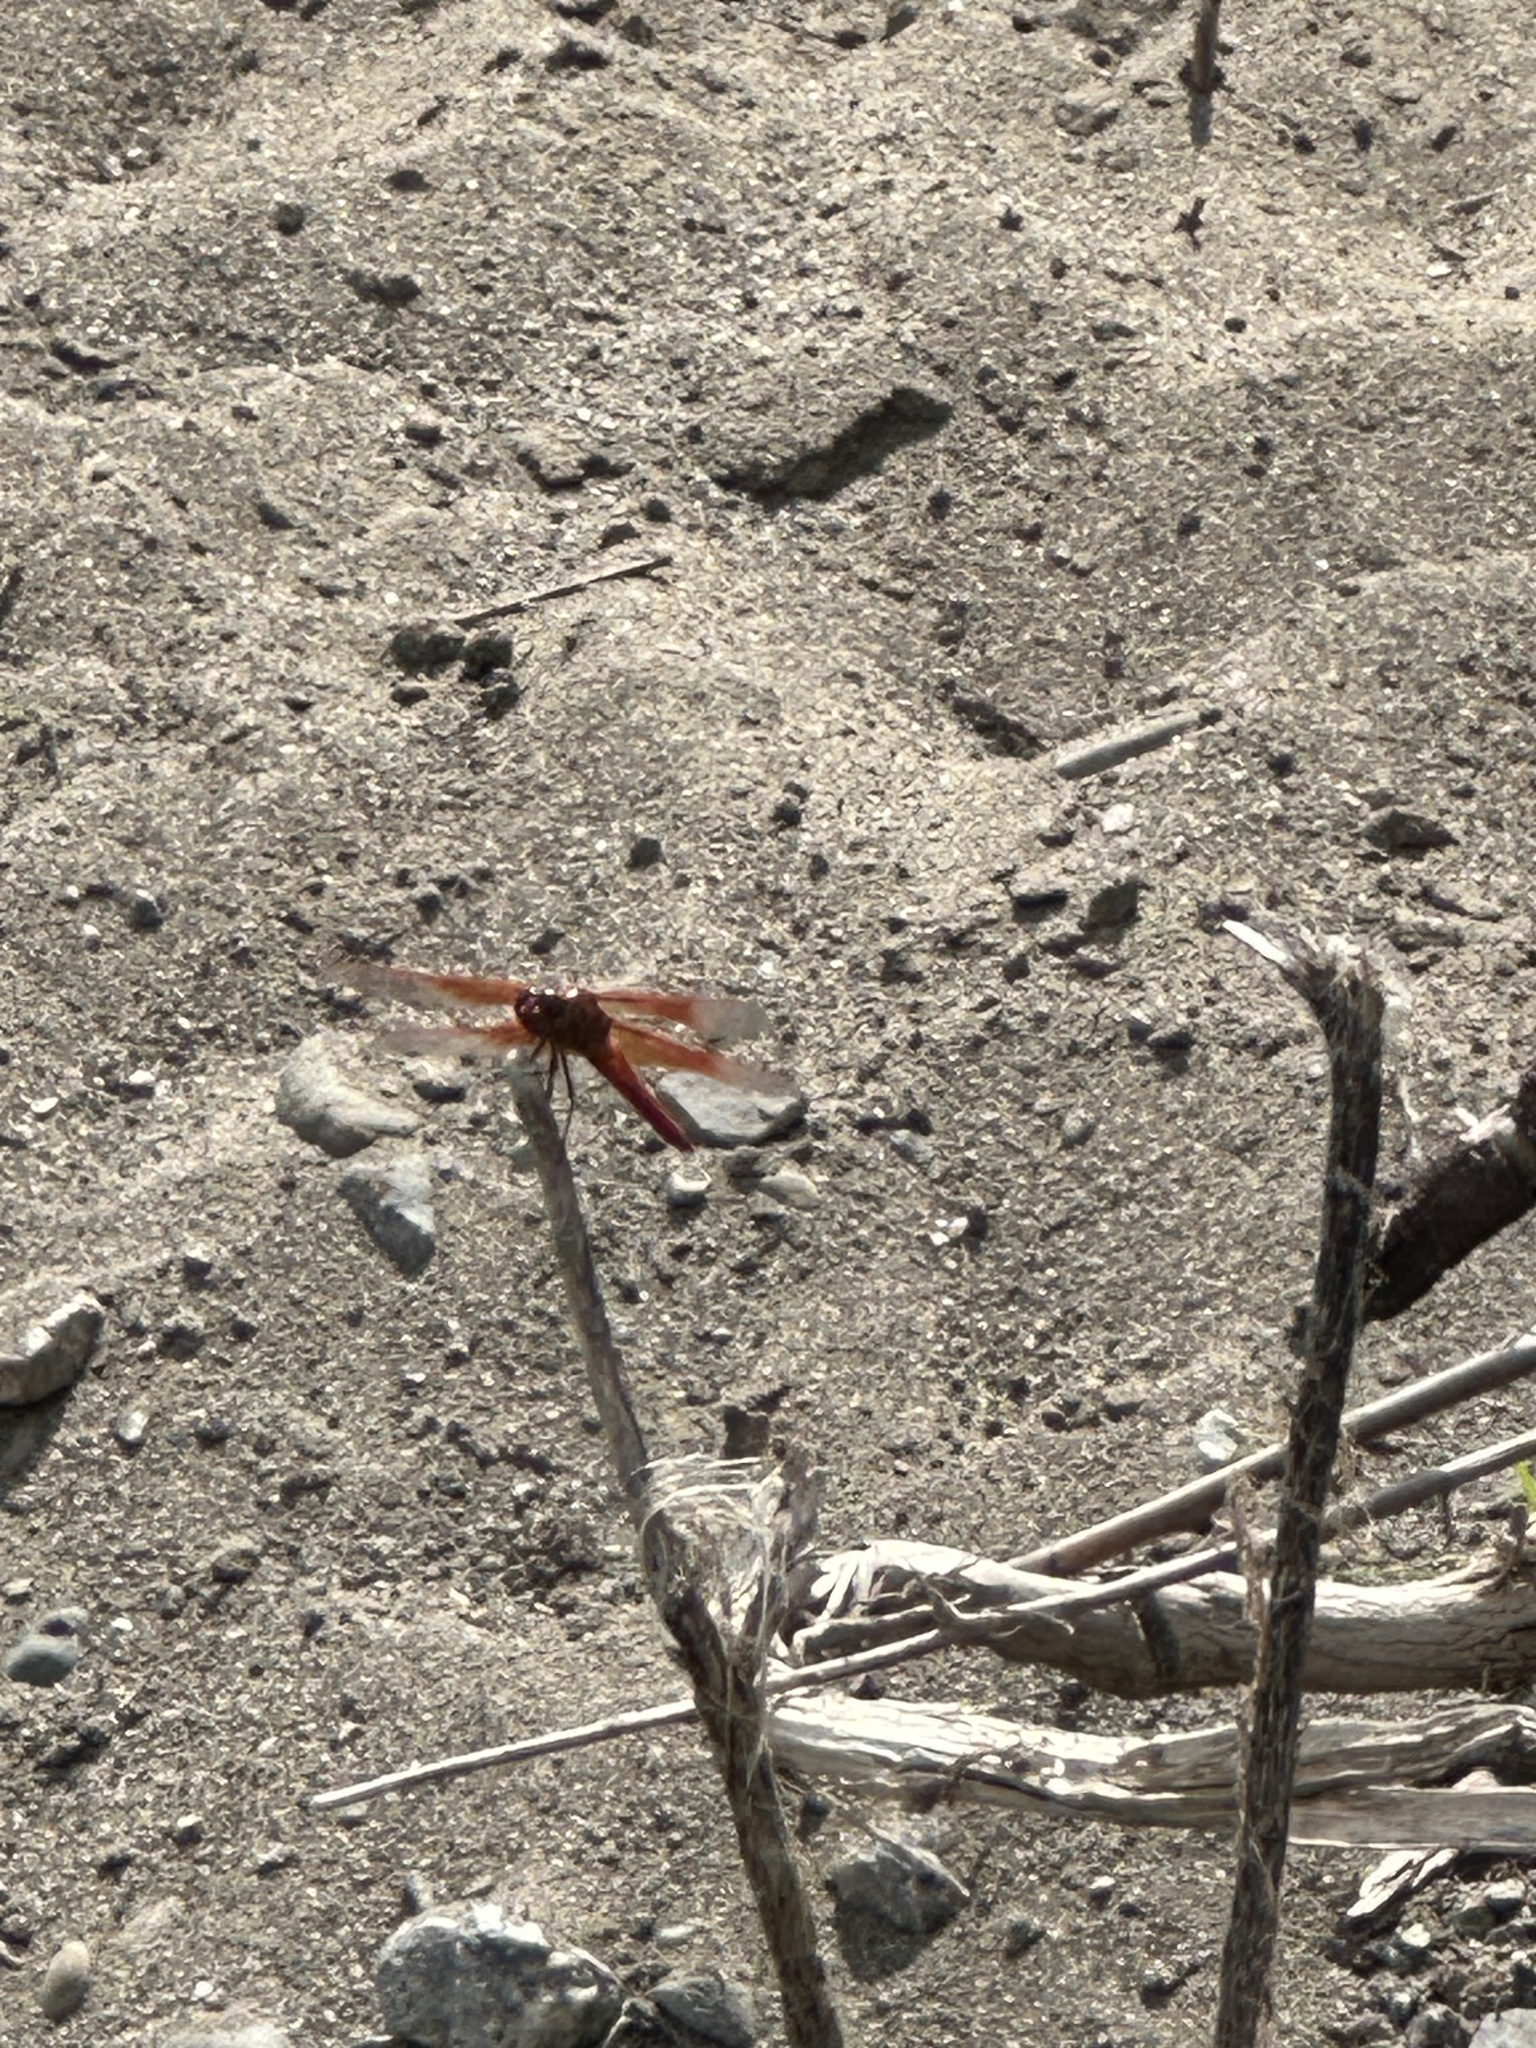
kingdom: Animalia
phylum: Arthropoda
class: Insecta
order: Odonata
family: Libellulidae
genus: Libellula
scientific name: Libellula saturata
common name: Flame skimmer
